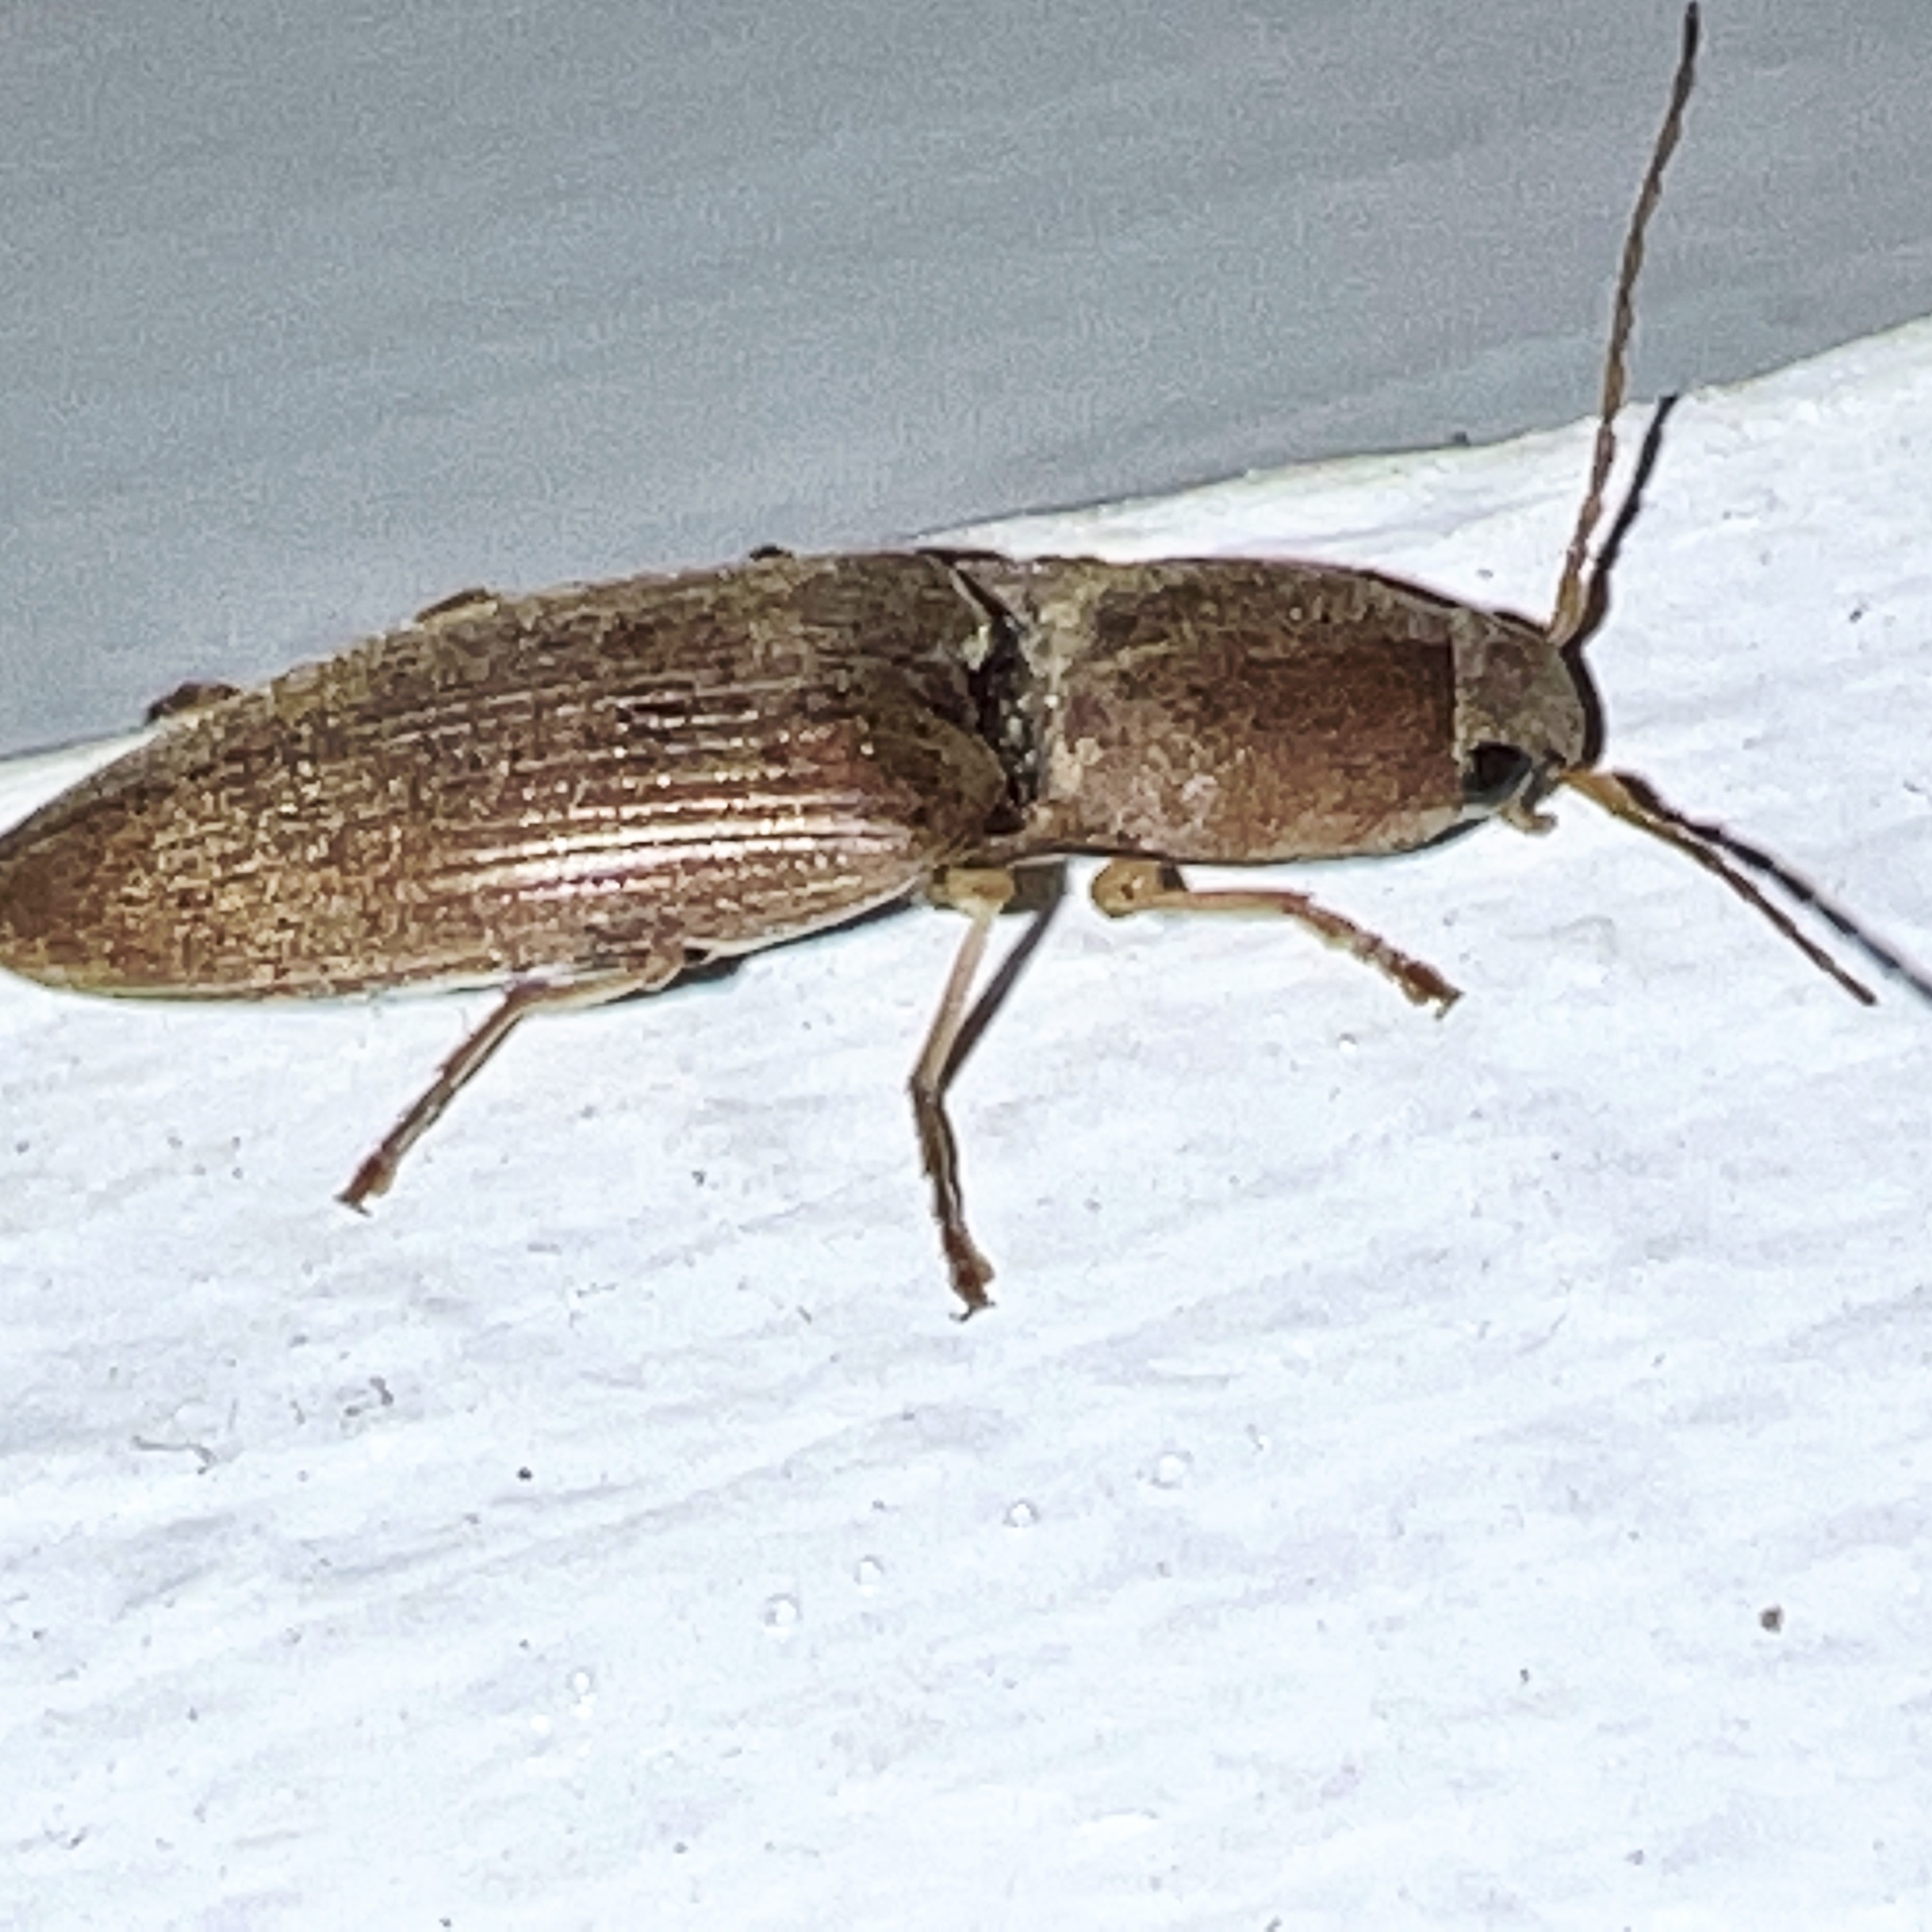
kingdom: Animalia
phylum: Arthropoda
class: Insecta
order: Coleoptera
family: Elateridae
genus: Monocrepidius
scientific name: Monocrepidius lividus
